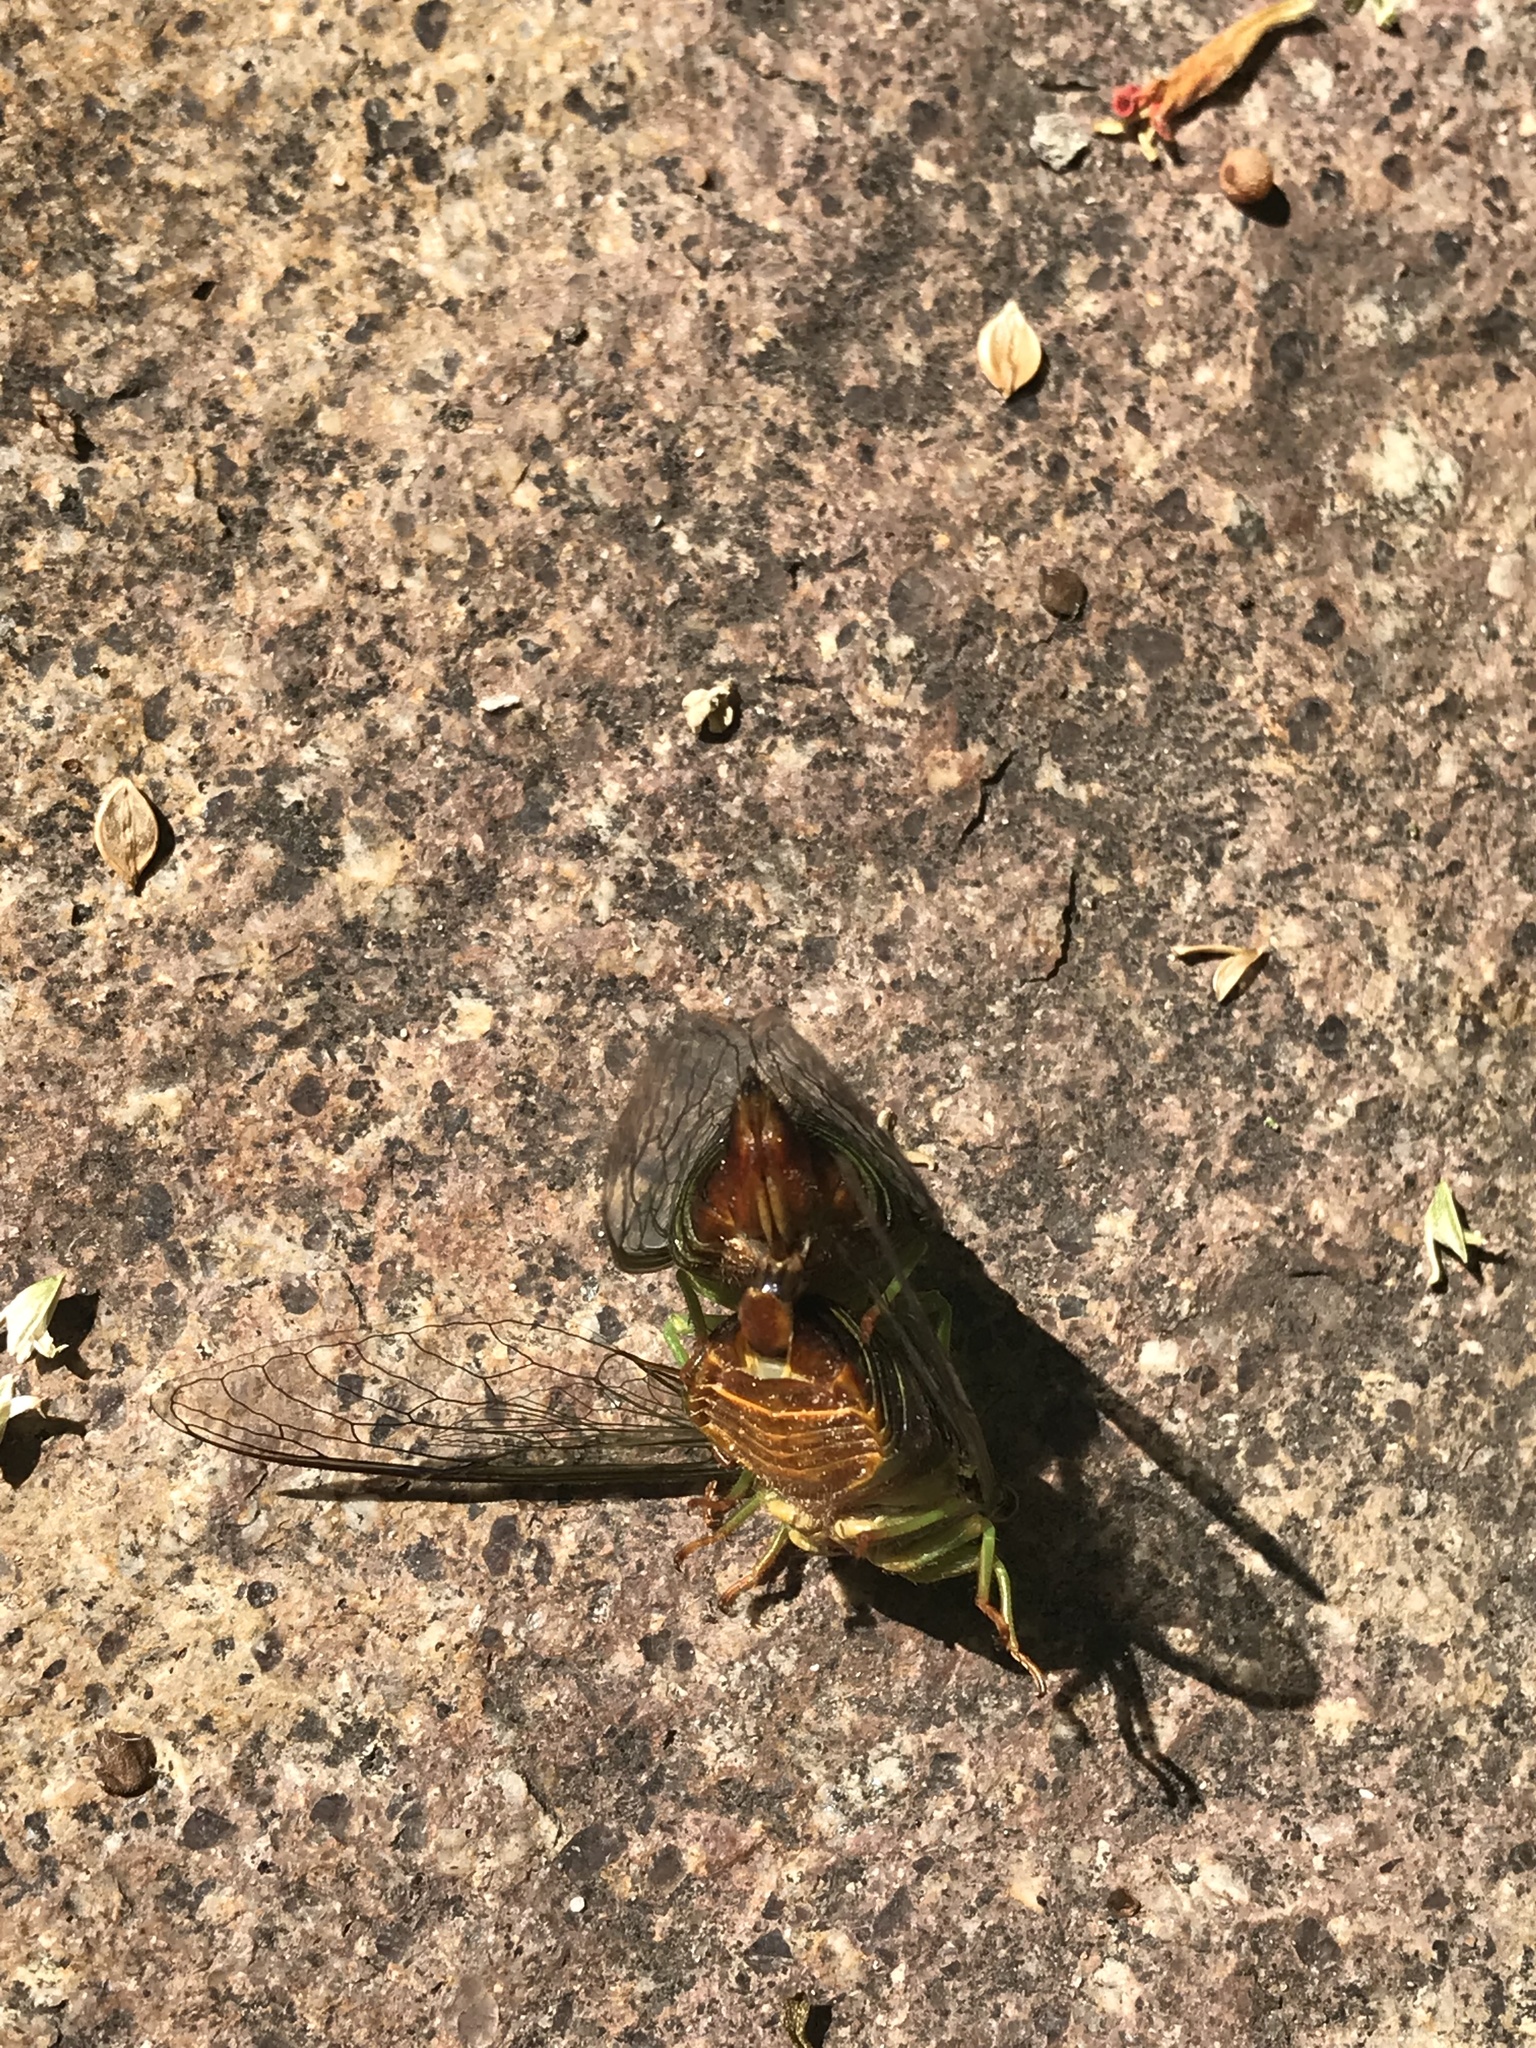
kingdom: Animalia
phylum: Arthropoda
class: Insecta
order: Hemiptera
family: Cicadidae
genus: Acanthoventris
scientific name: Acanthoventris drewseni
